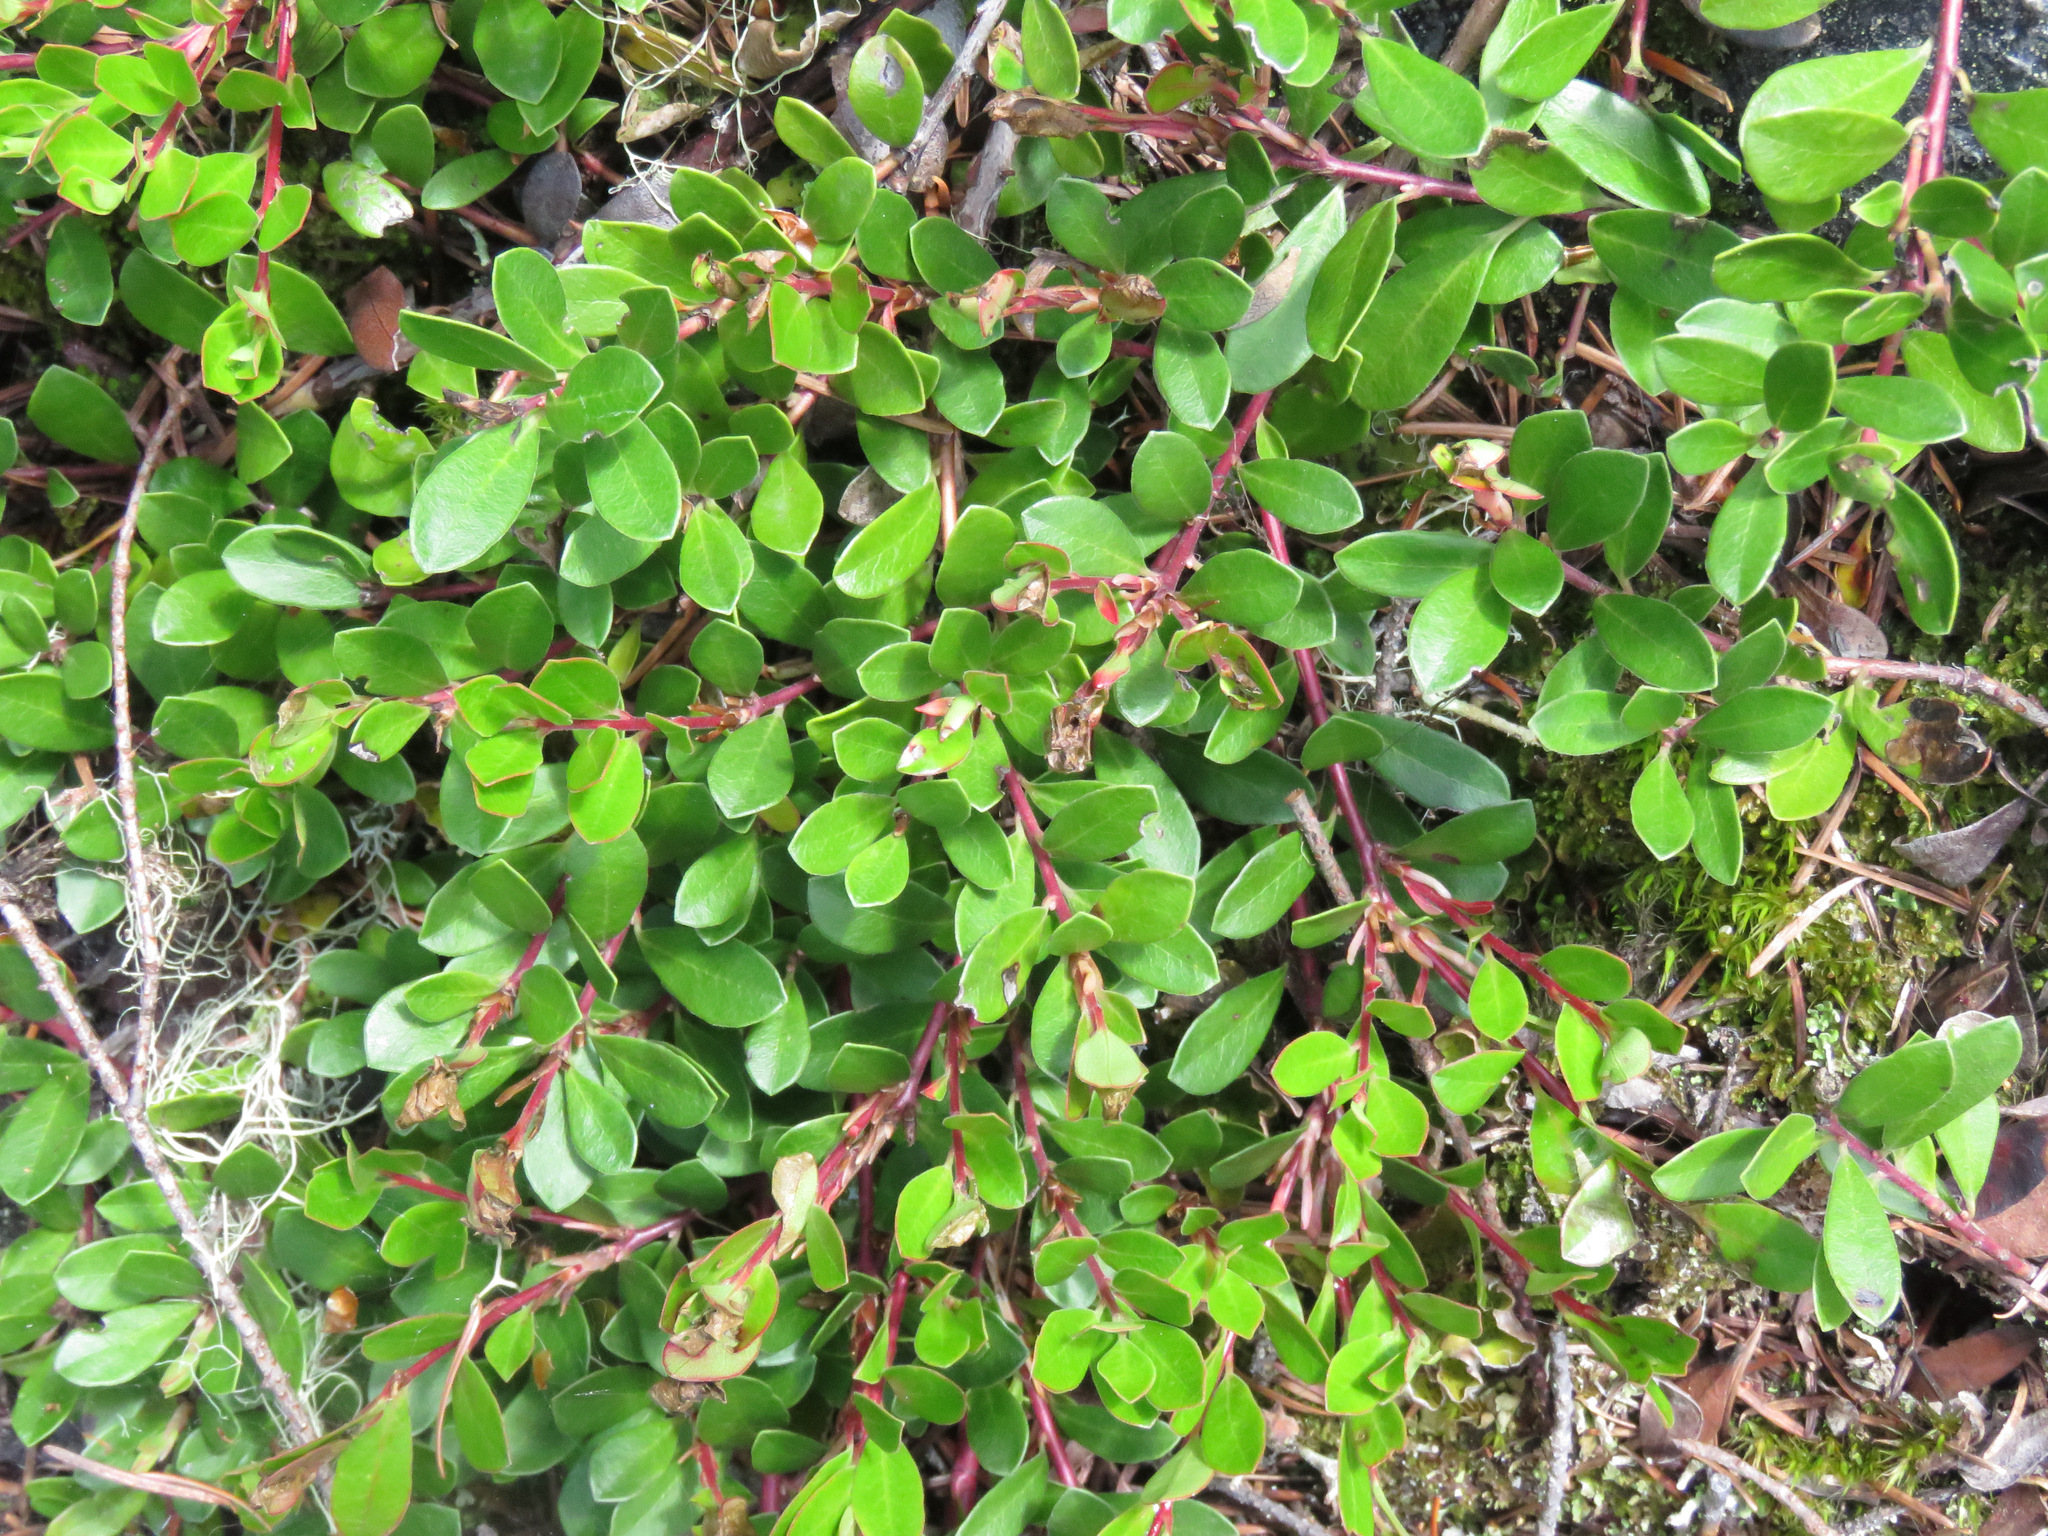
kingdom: Plantae
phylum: Tracheophyta
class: Magnoliopsida
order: Ericales
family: Ericaceae
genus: Arctostaphylos
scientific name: Arctostaphylos uva-ursi
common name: Bearberry
